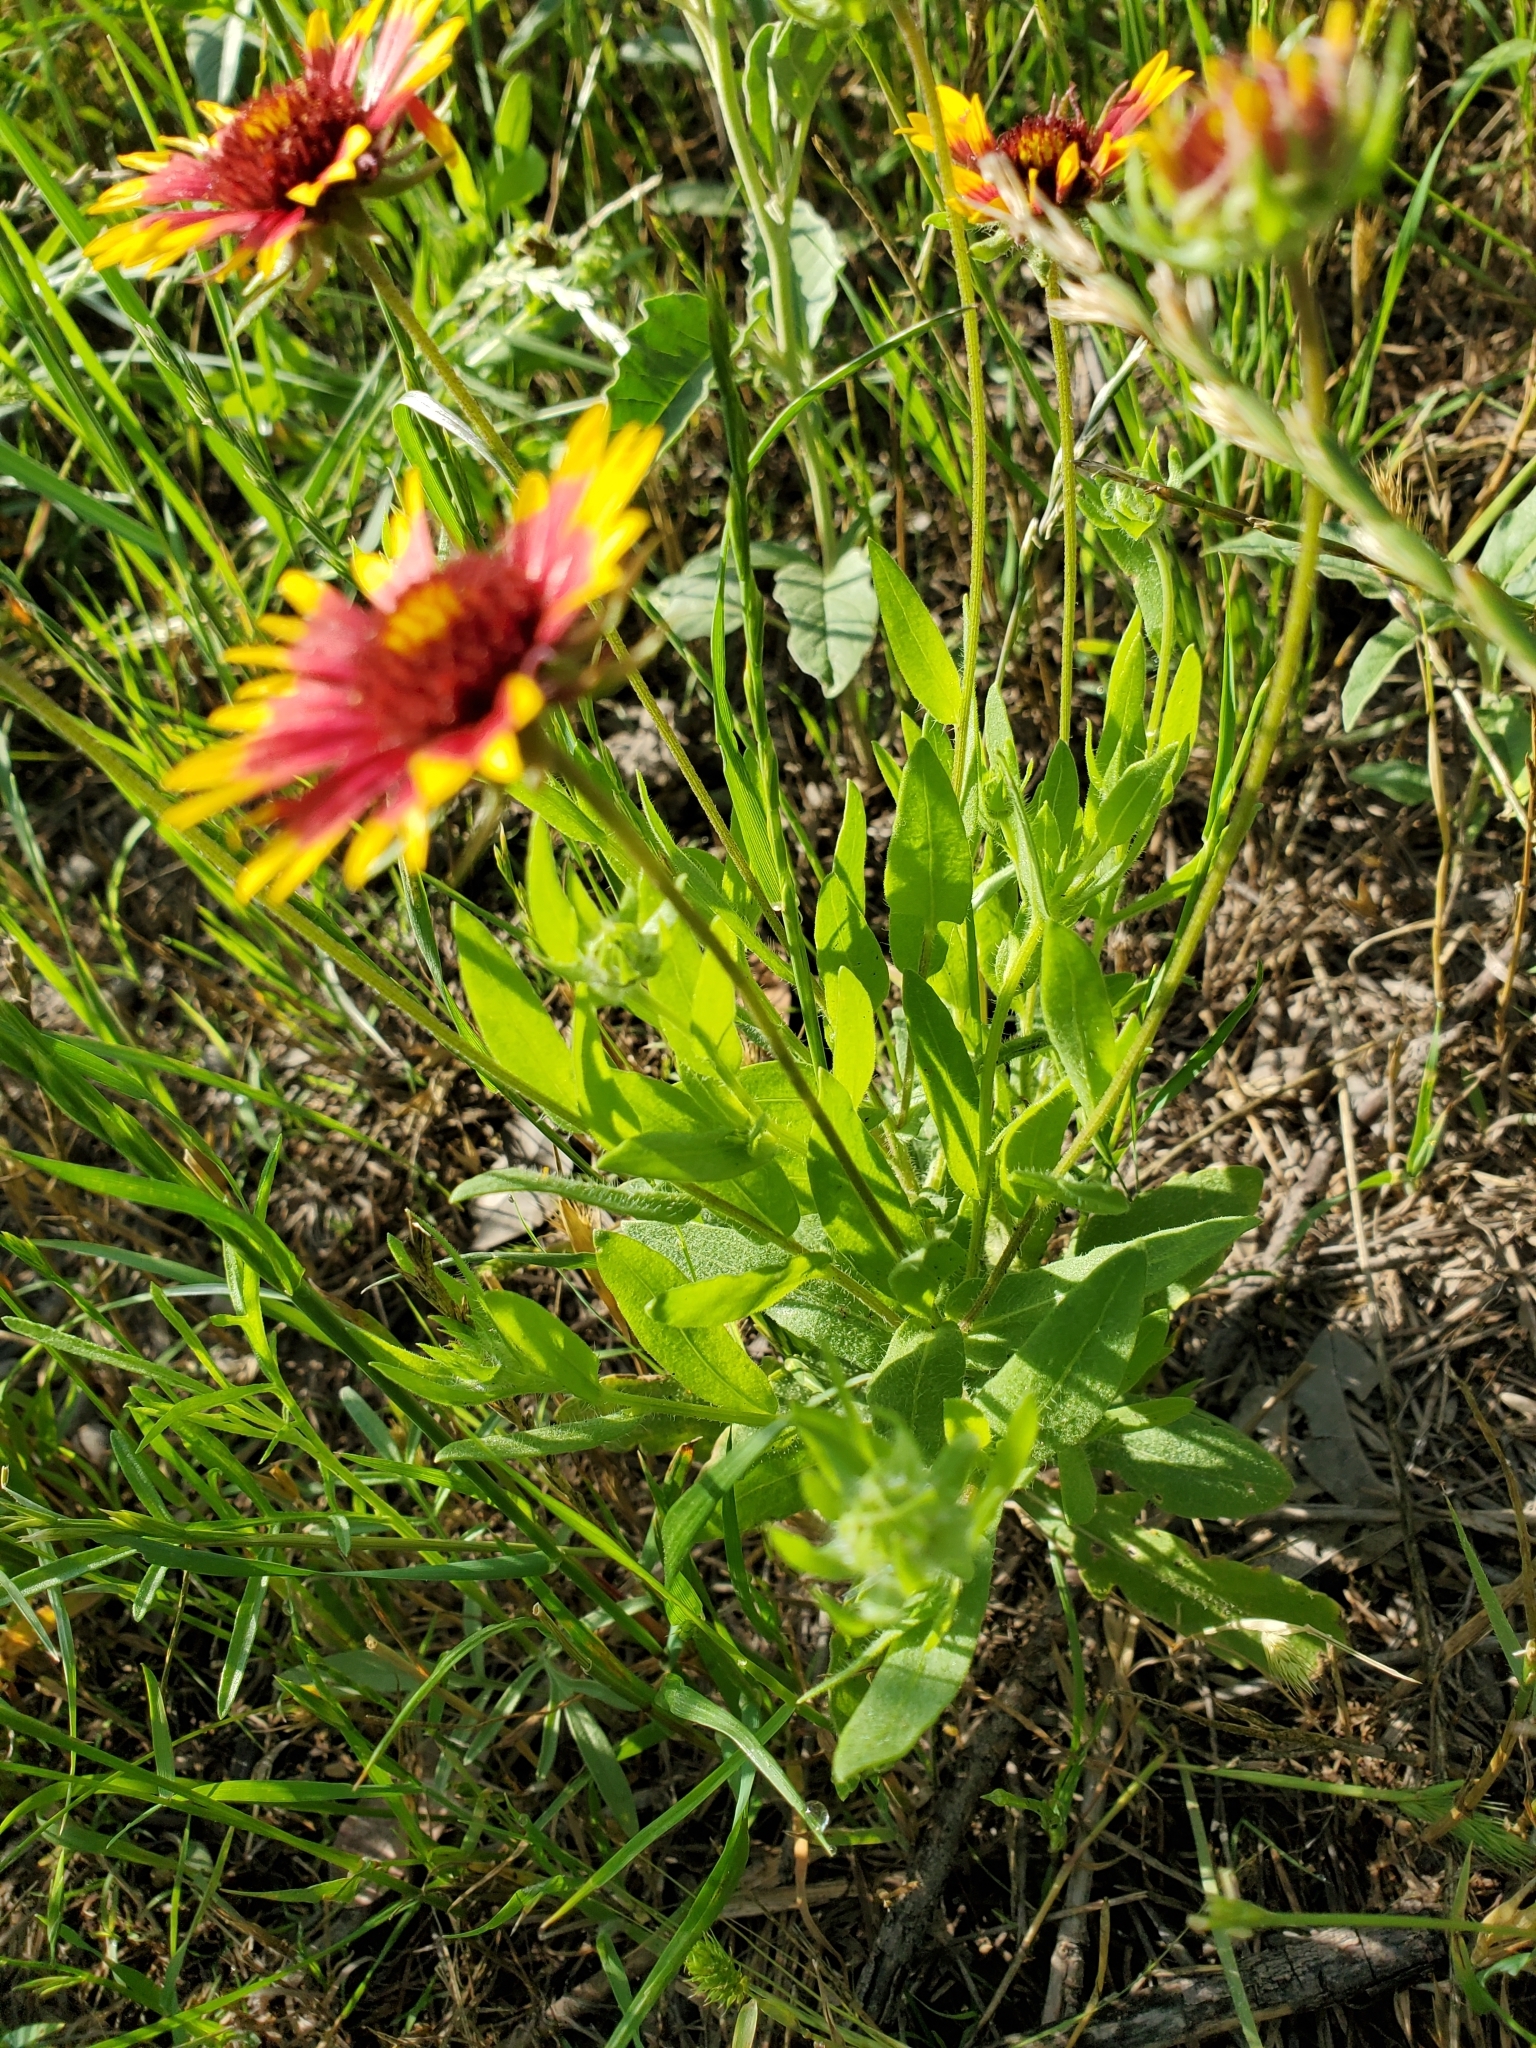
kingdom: Plantae
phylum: Tracheophyta
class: Magnoliopsida
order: Asterales
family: Asteraceae
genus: Gaillardia
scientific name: Gaillardia pulchella
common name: Firewheel
